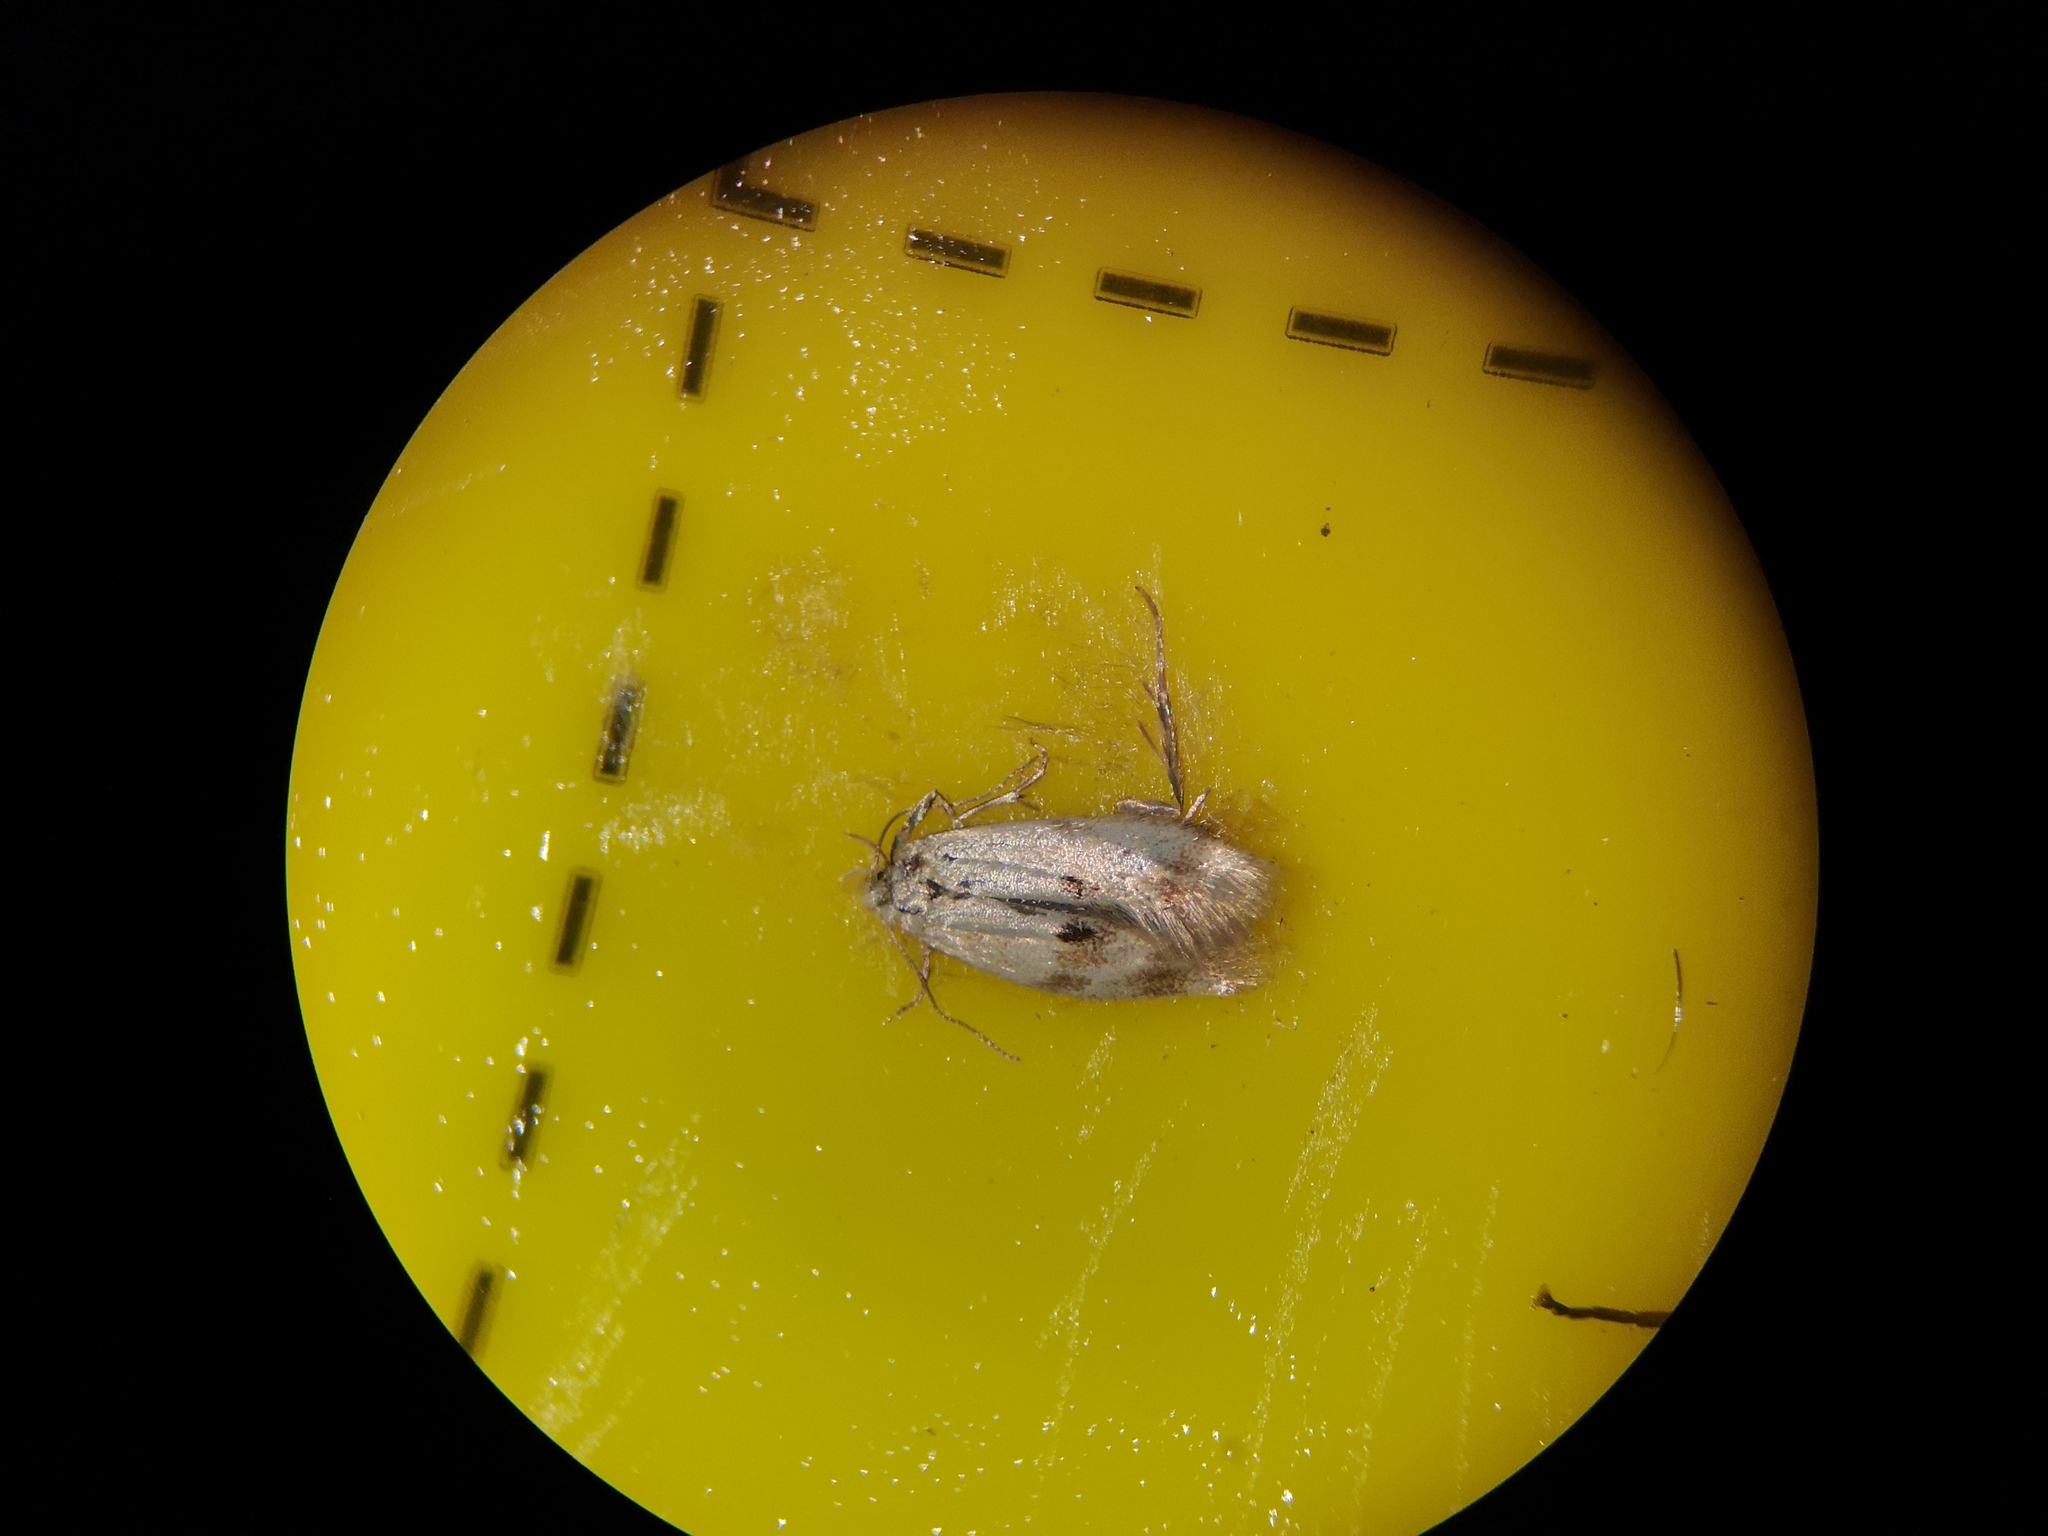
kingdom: Animalia
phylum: Arthropoda
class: Insecta
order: Lepidoptera
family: Elachistidae
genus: Elachista
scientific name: Elachista maculicerusella
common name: Triple-spot dwarf
